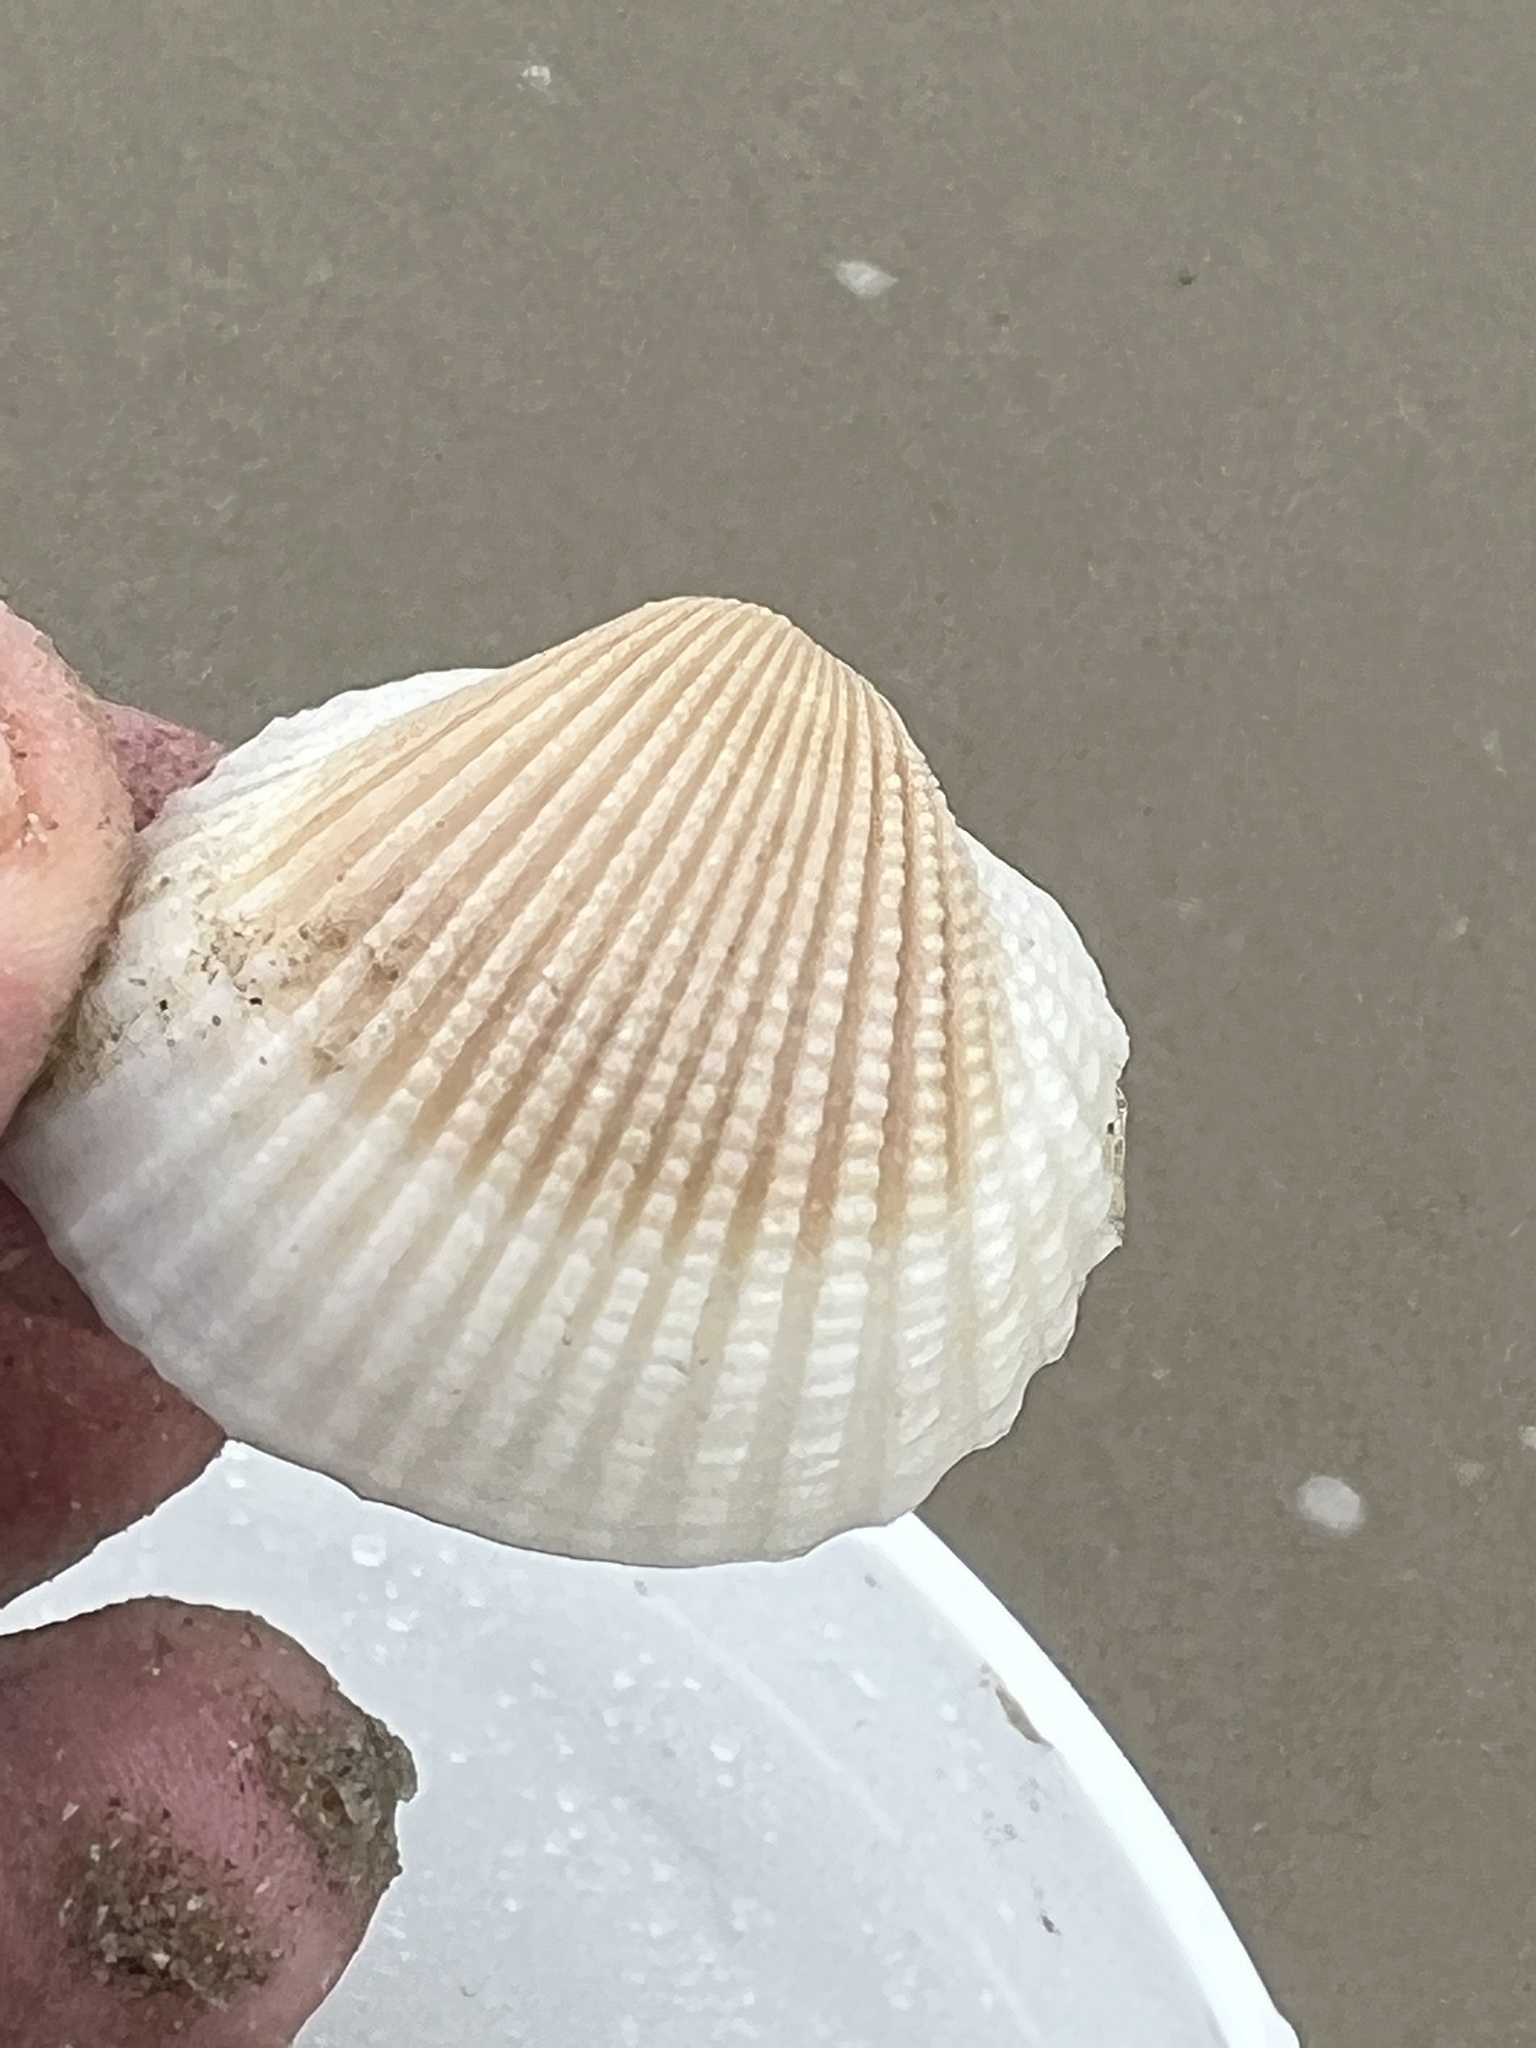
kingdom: Animalia
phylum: Mollusca
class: Bivalvia
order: Arcida
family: Arcidae
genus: Anadara
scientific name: Anadara brasiliana
